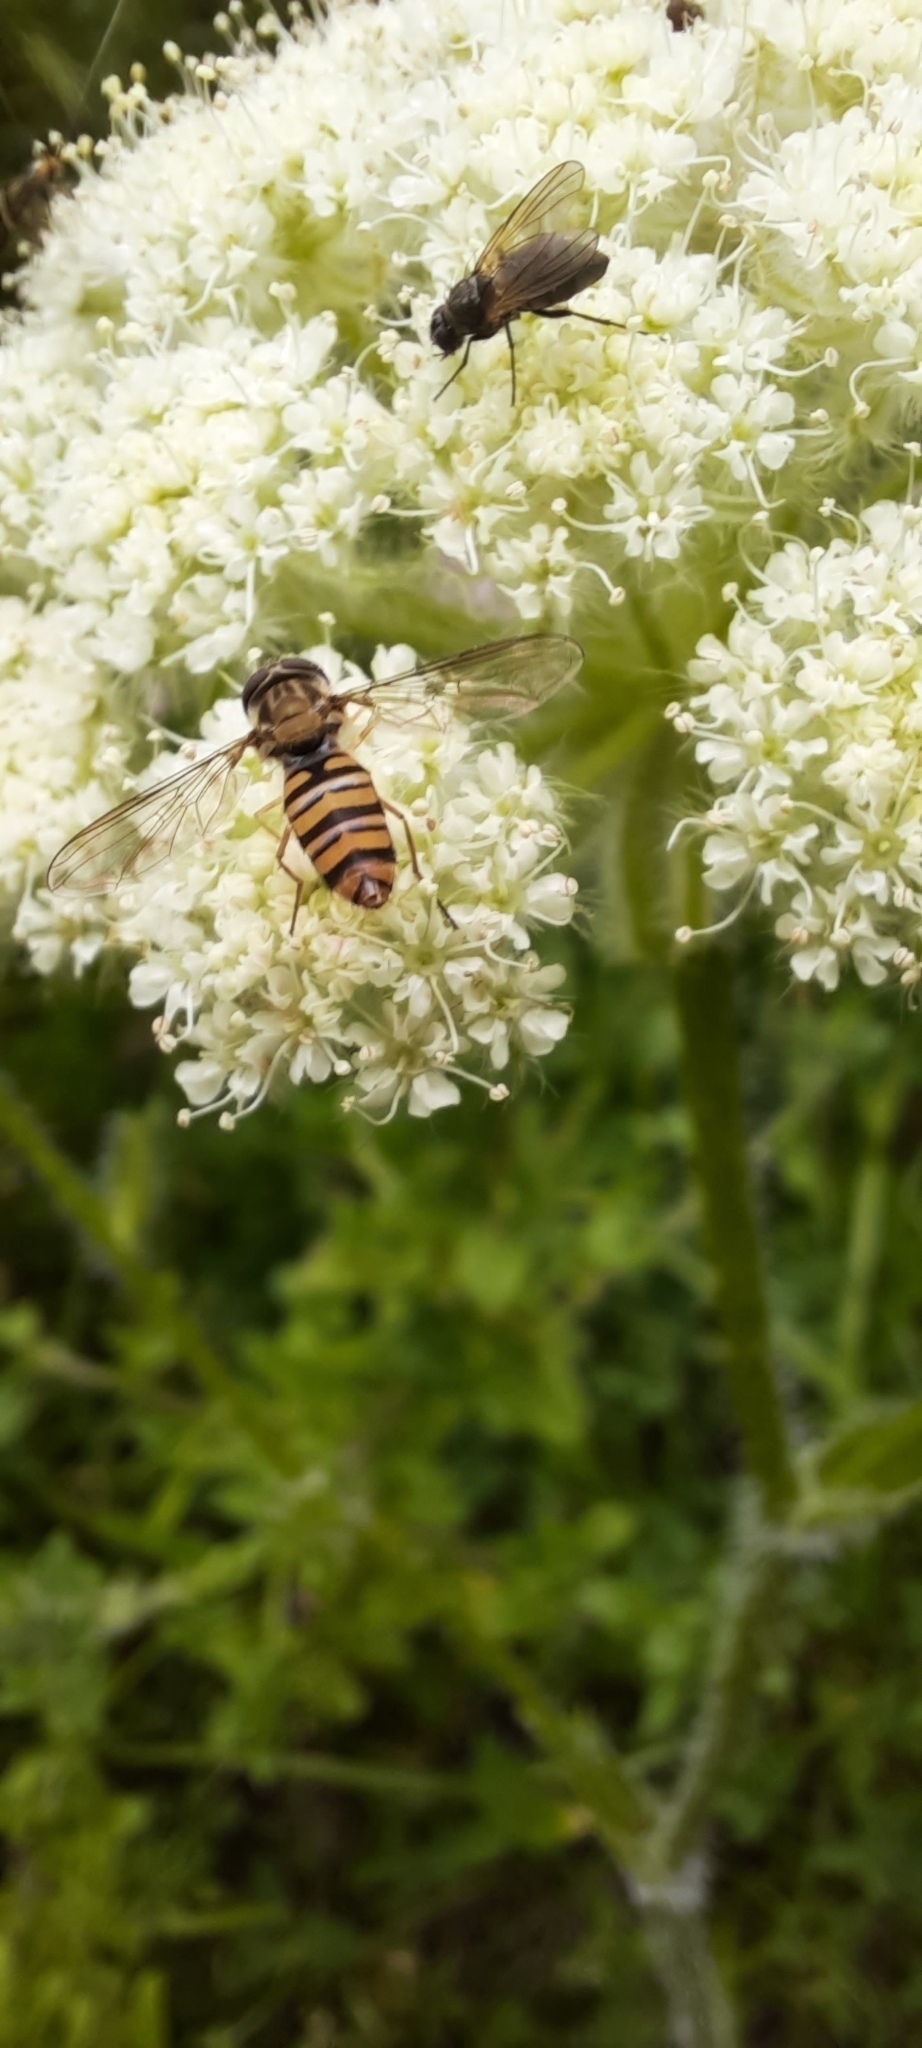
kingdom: Animalia
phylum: Arthropoda
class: Insecta
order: Diptera
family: Syrphidae
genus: Episyrphus
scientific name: Episyrphus balteatus
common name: Marmalade hoverfly
